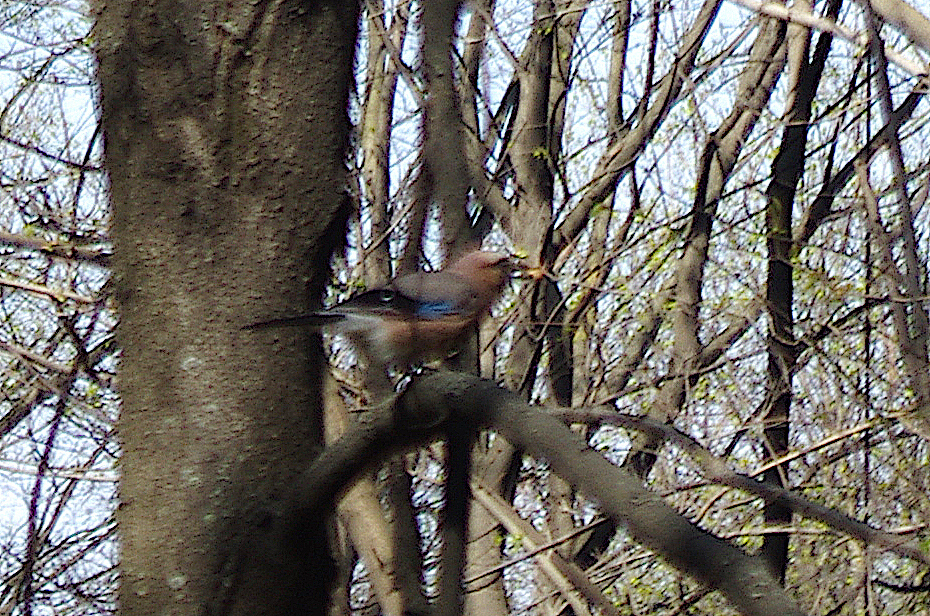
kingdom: Animalia
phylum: Chordata
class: Aves
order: Passeriformes
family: Corvidae
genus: Garrulus
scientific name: Garrulus glandarius
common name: Eurasian jay
